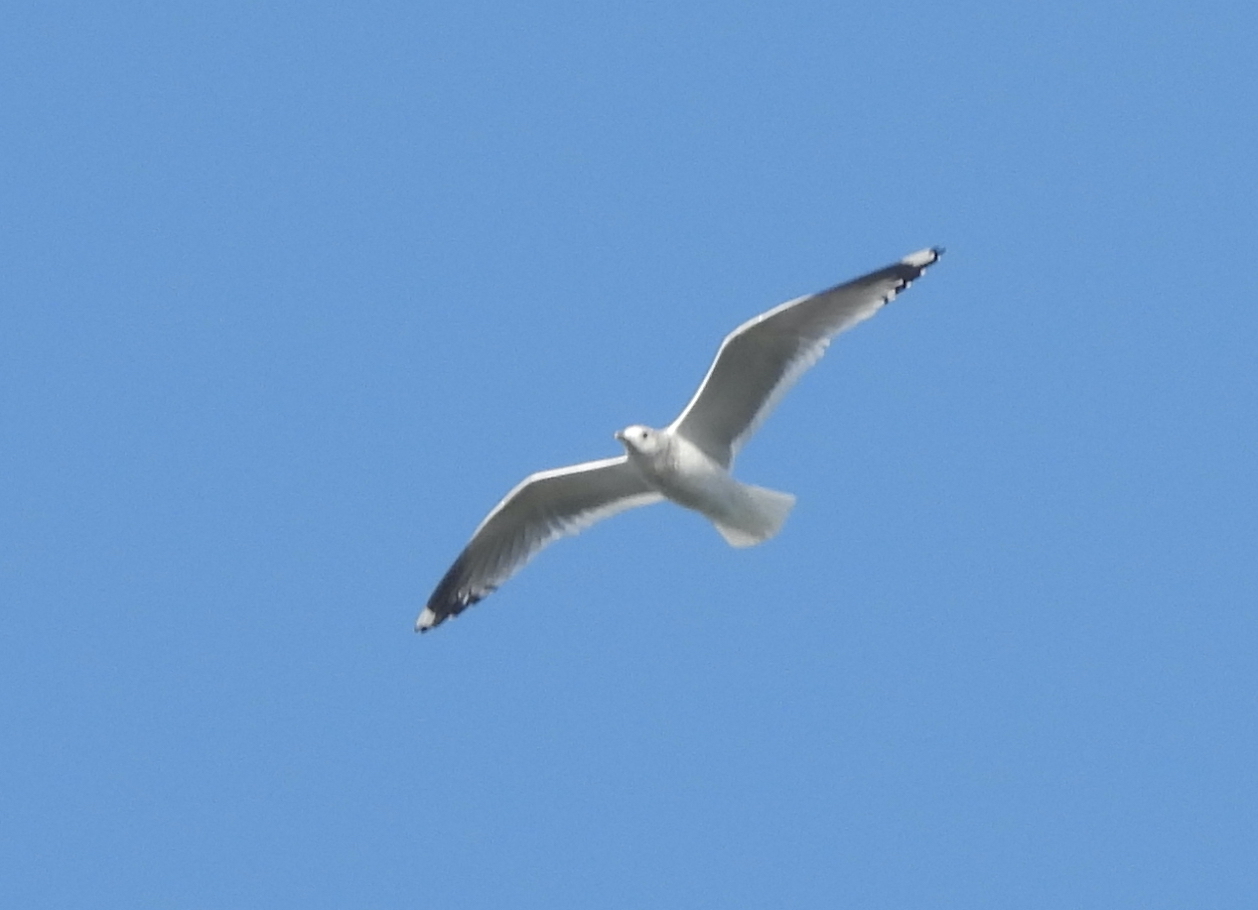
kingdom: Animalia
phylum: Chordata
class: Aves
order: Charadriiformes
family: Laridae
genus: Larus
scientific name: Larus brachyrhynchus
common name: Short-billed gull
